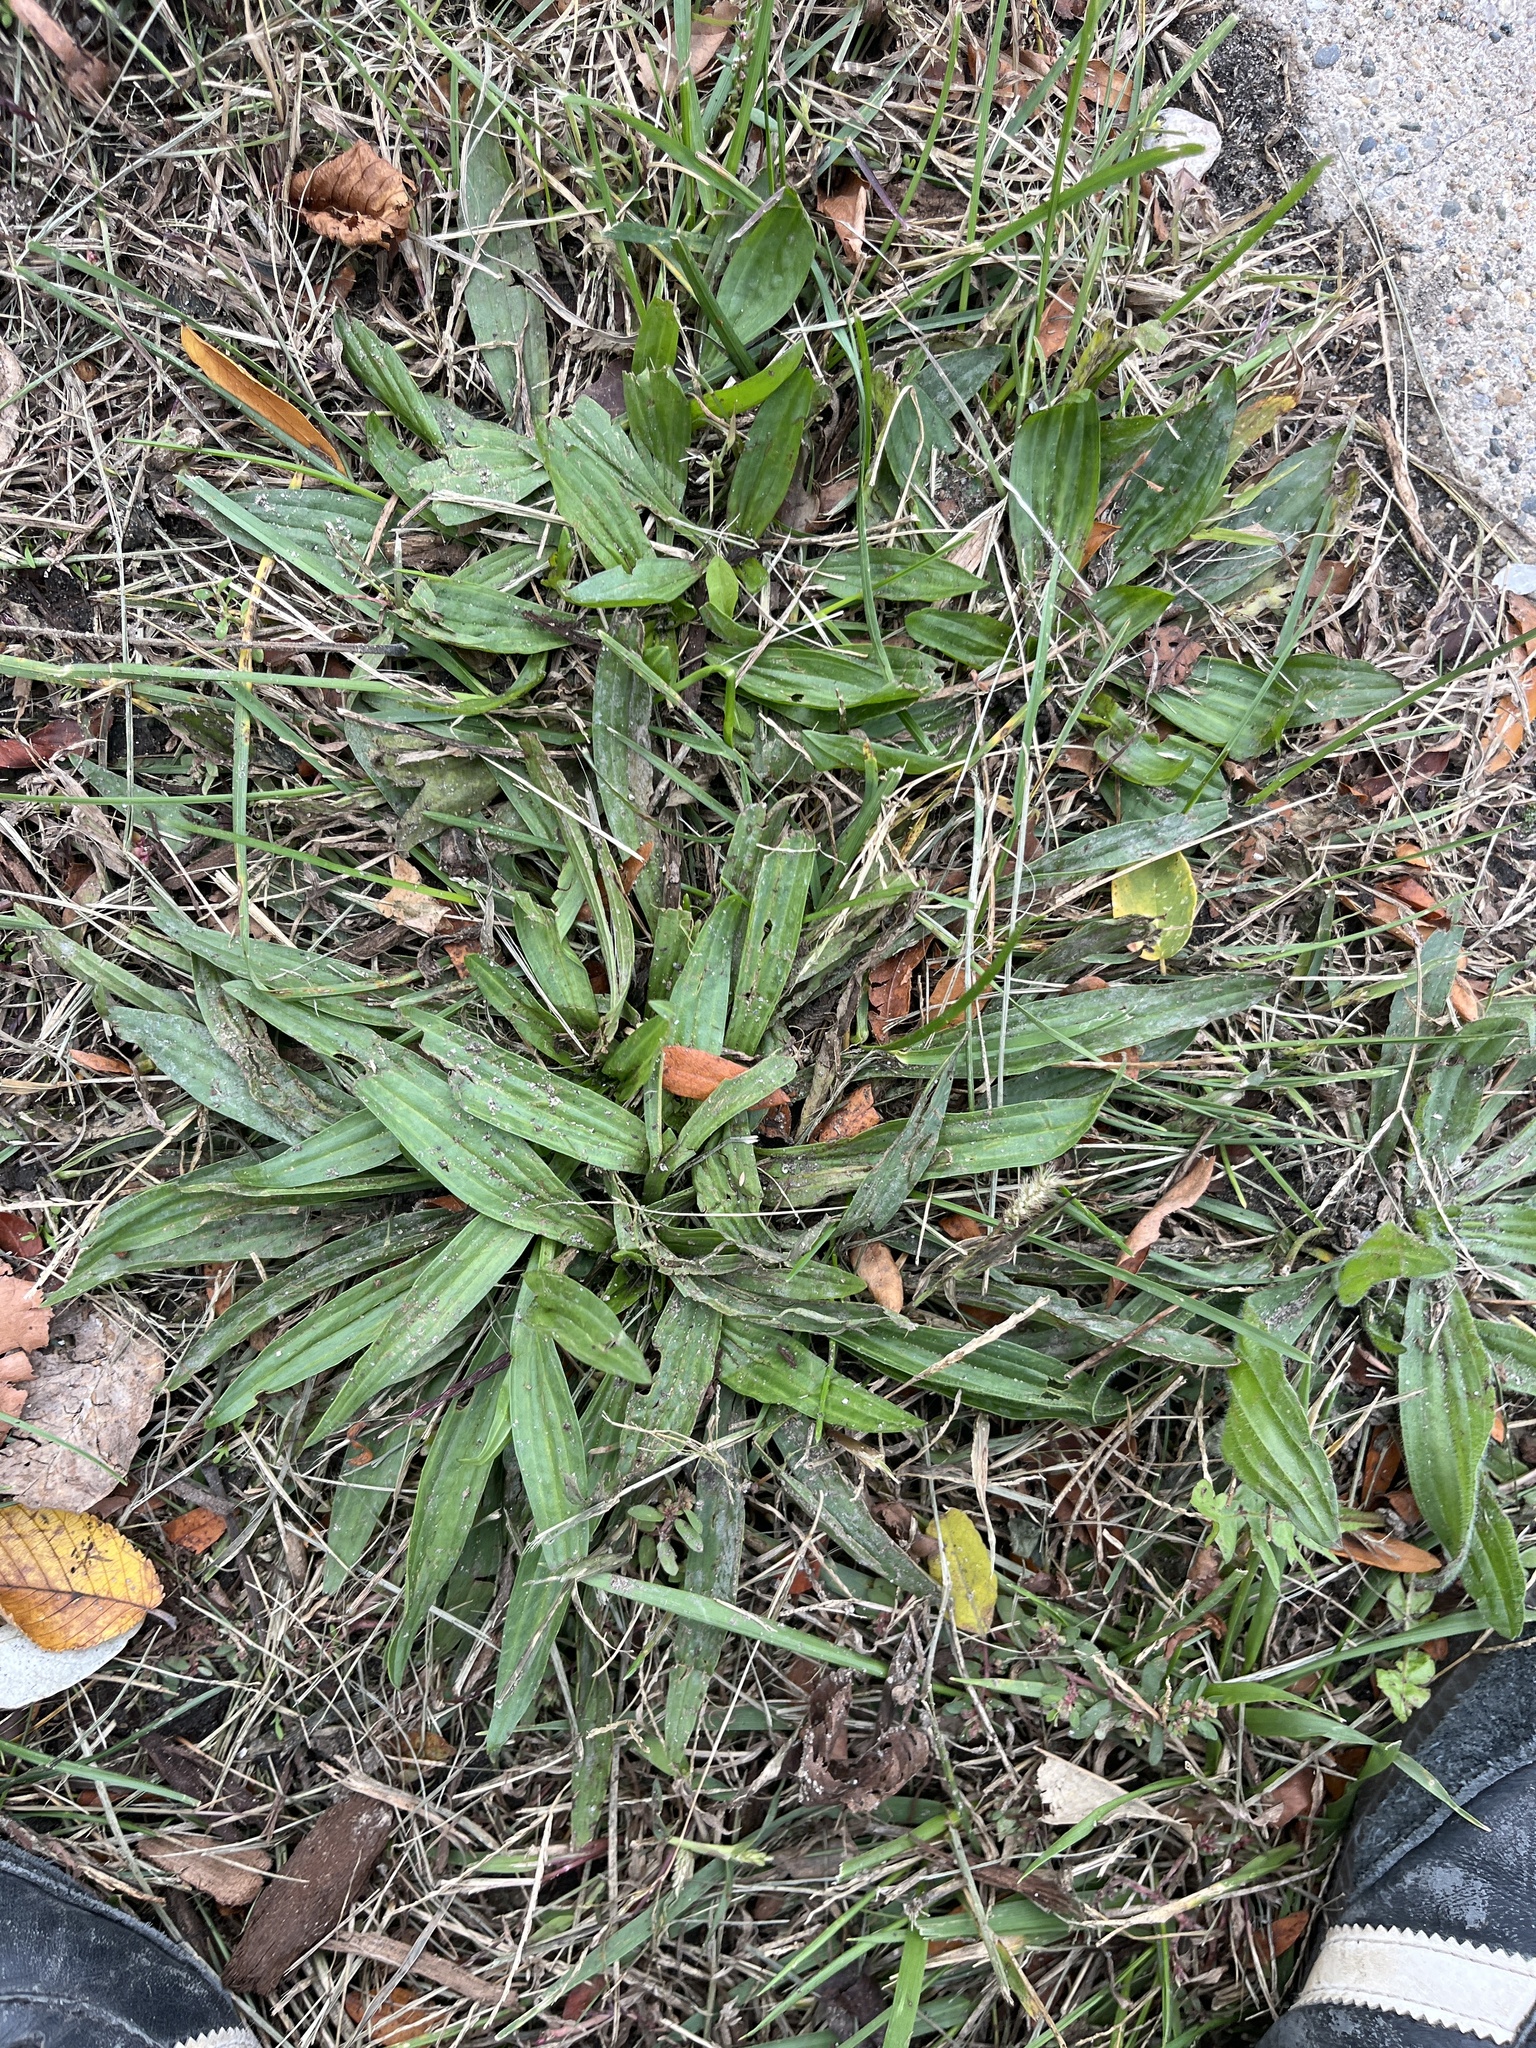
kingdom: Plantae
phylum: Tracheophyta
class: Magnoliopsida
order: Lamiales
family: Plantaginaceae
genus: Plantago
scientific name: Plantago lanceolata
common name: Ribwort plantain
